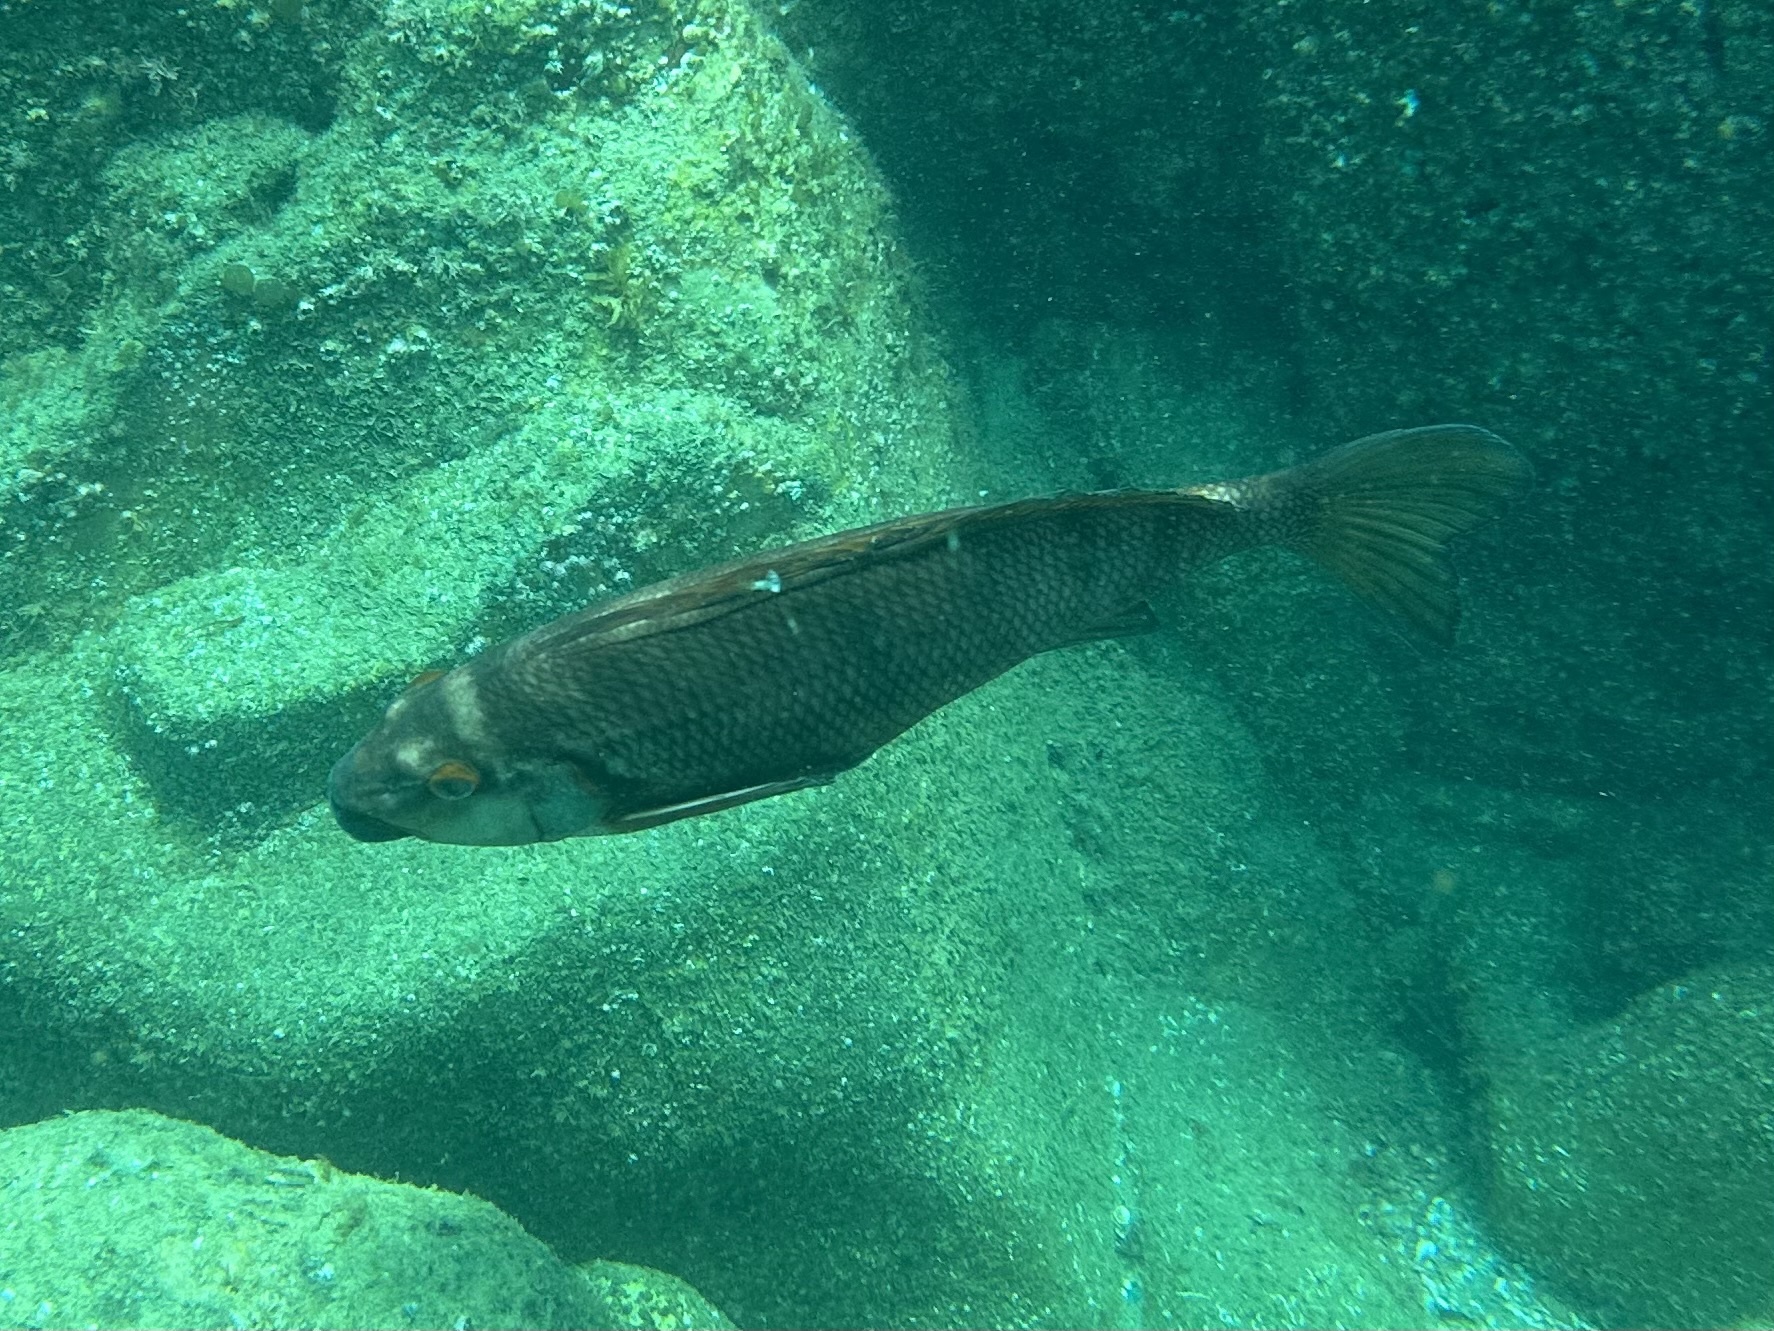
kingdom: Animalia
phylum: Chordata
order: Perciformes
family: Cheilodactylidae
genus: Cheilodactylus
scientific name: Cheilodactylus spectabilis
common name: Red moki
